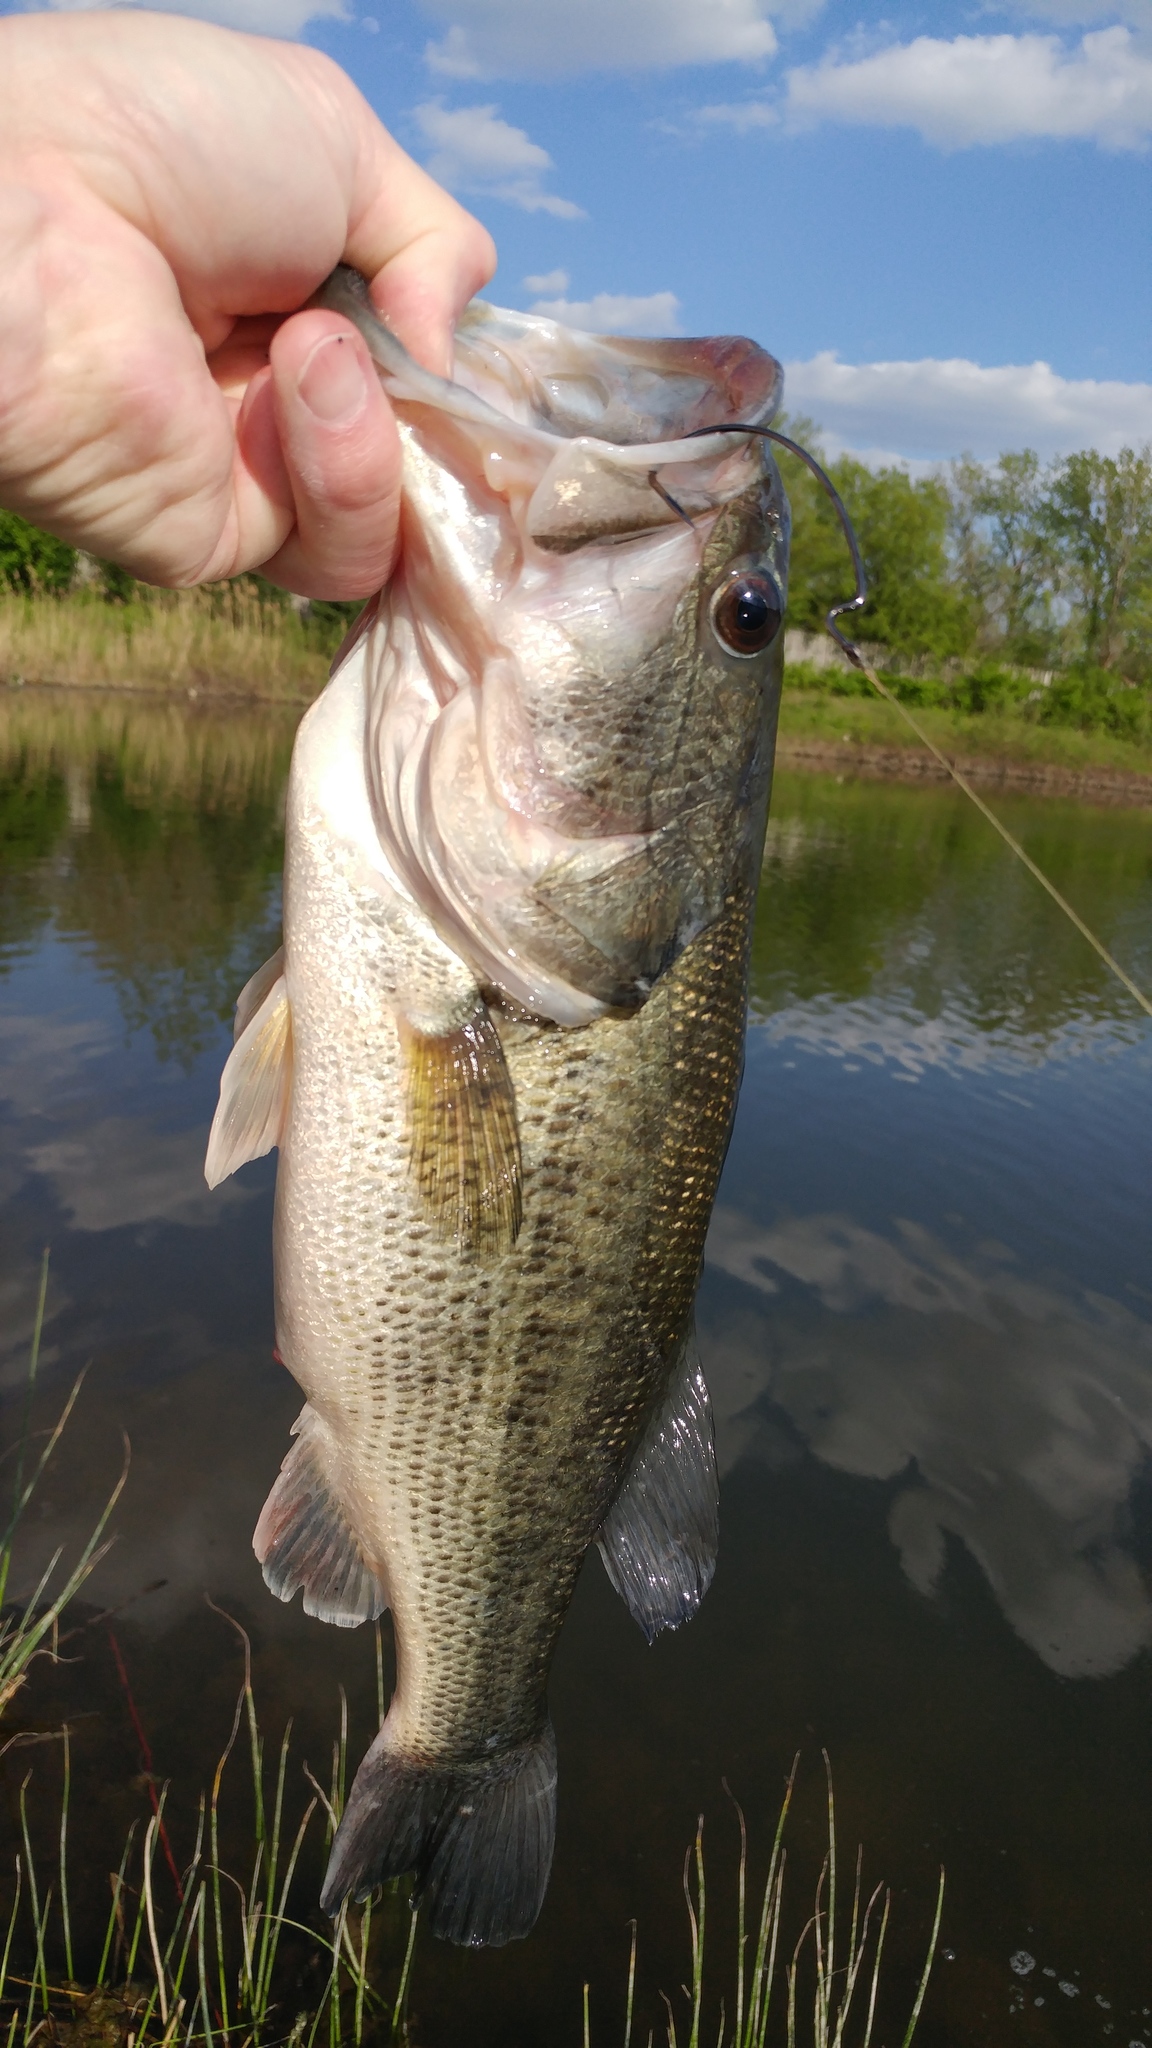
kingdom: Animalia
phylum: Chordata
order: Perciformes
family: Centrarchidae
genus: Micropterus
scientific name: Micropterus
